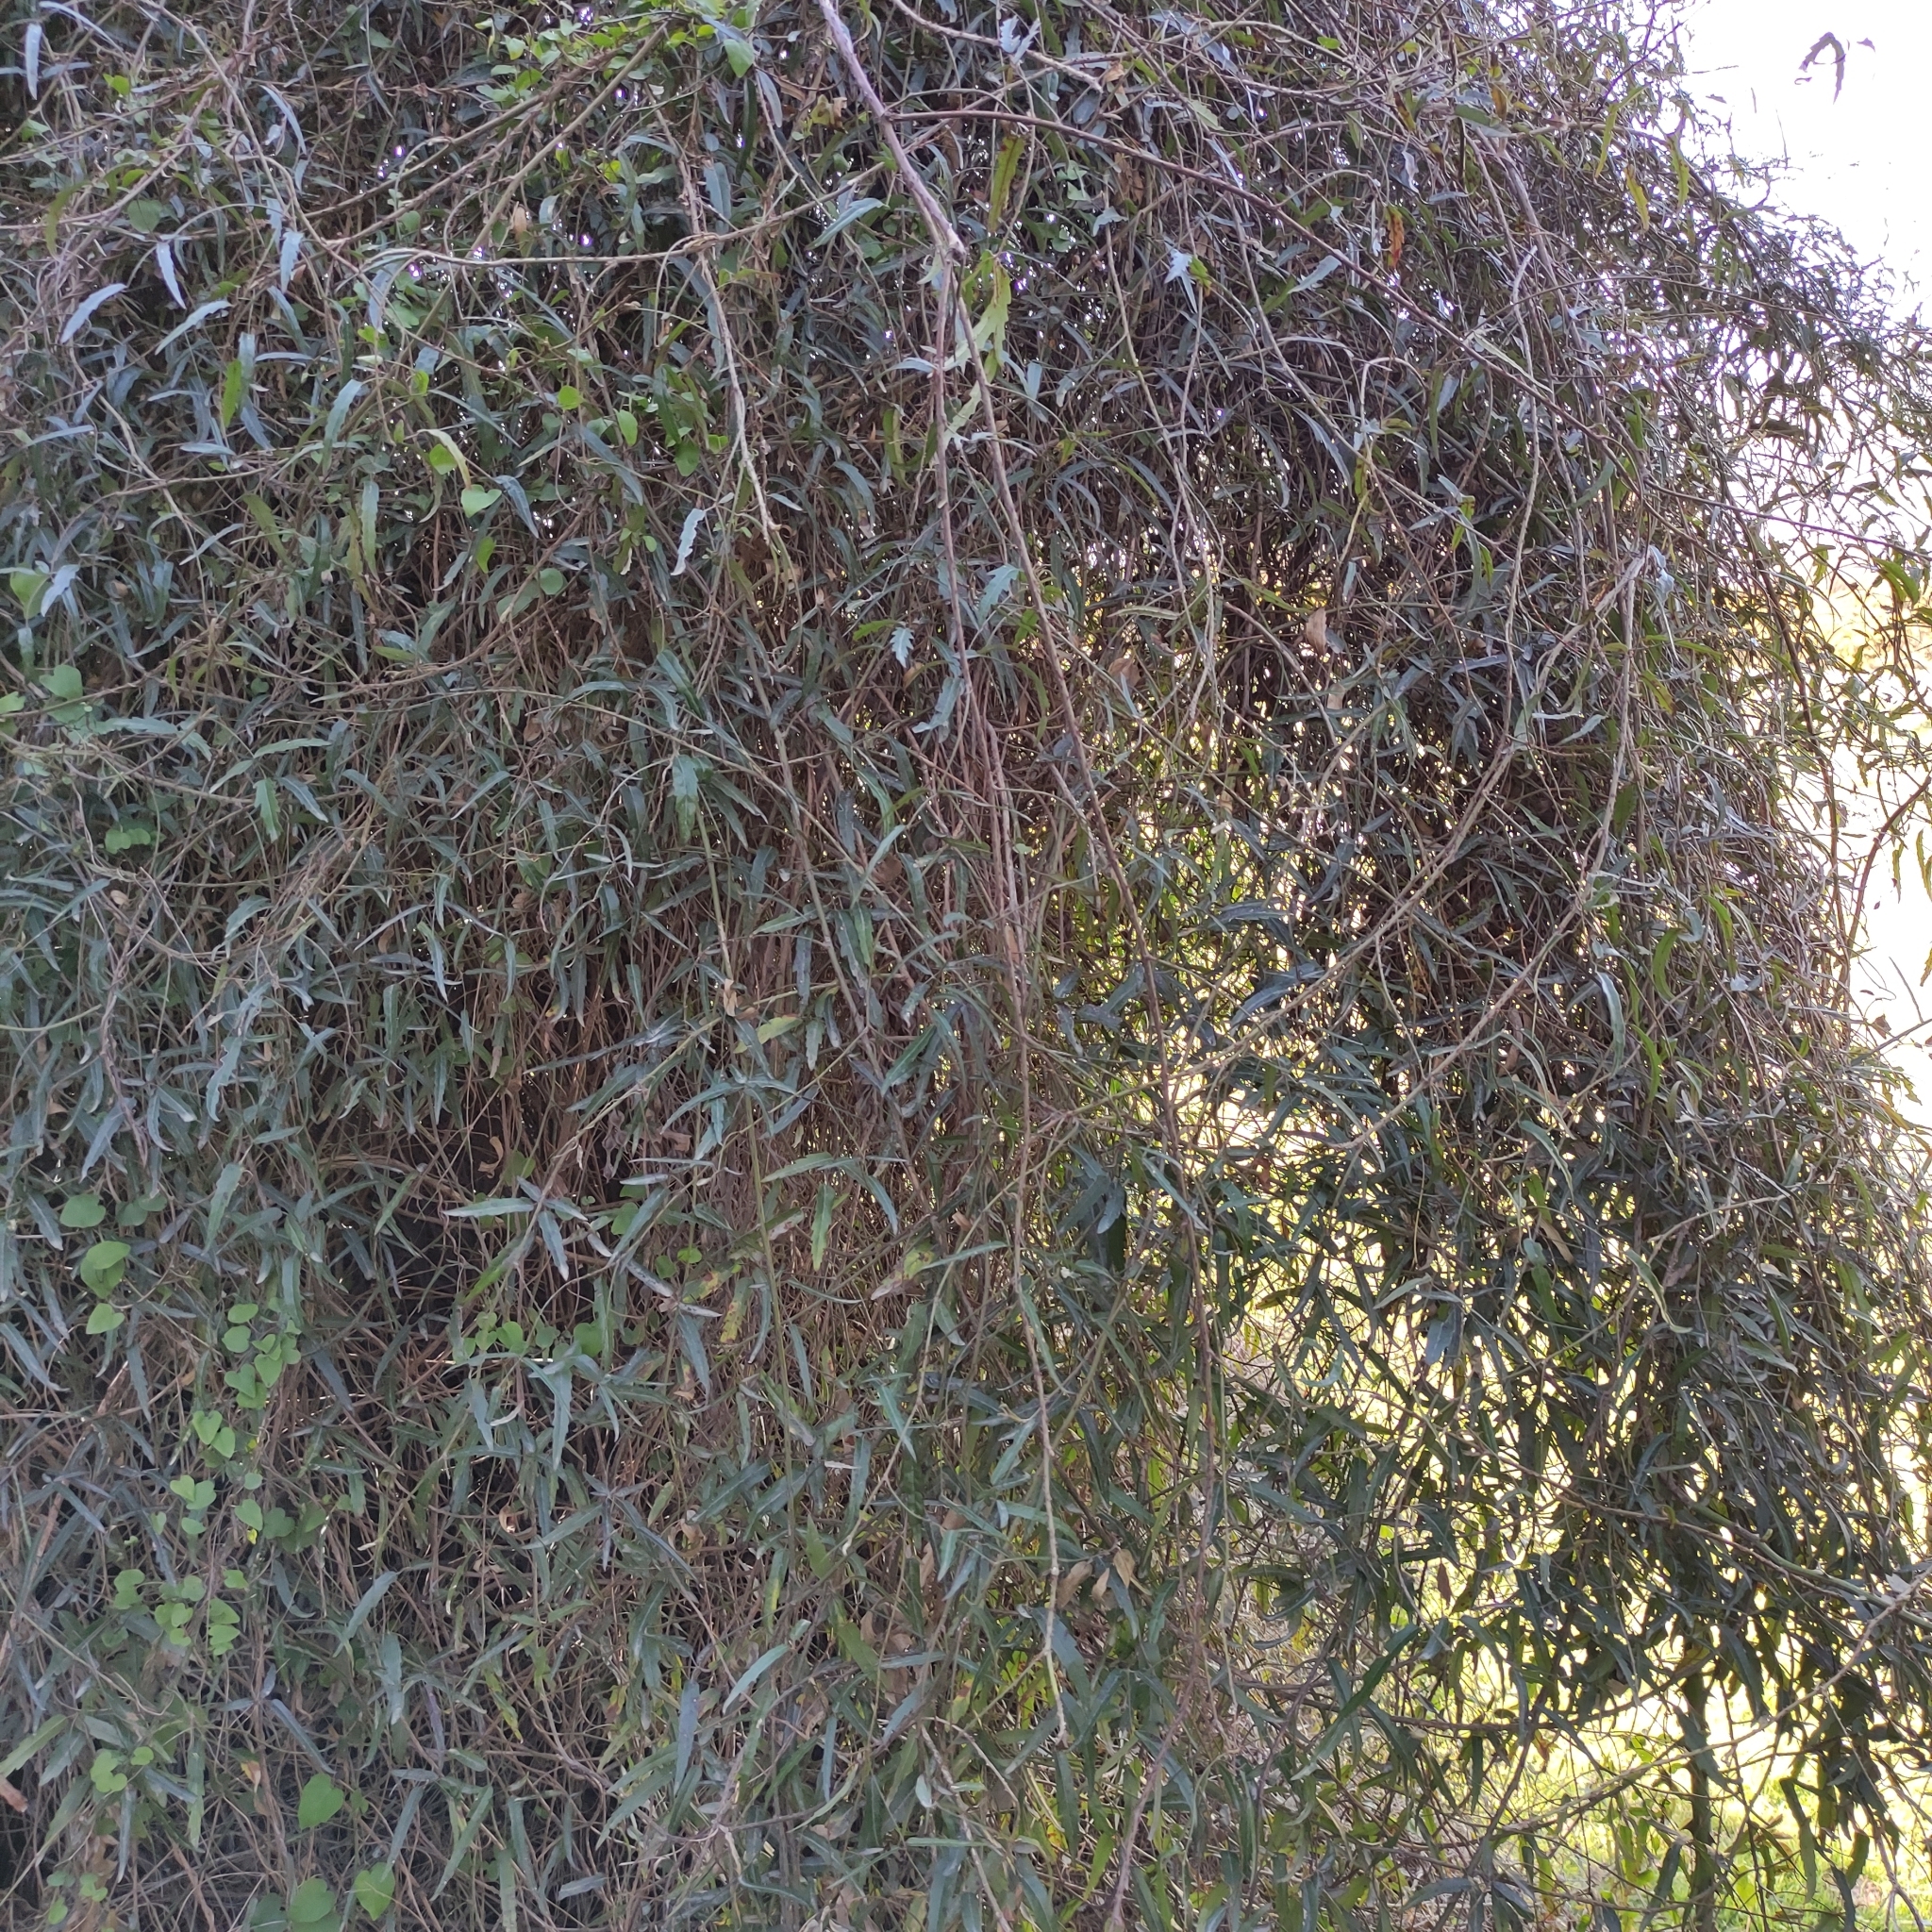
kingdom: Plantae
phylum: Tracheophyta
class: Magnoliopsida
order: Rosales
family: Rosaceae
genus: Rubus
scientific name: Rubus schmidelioides
